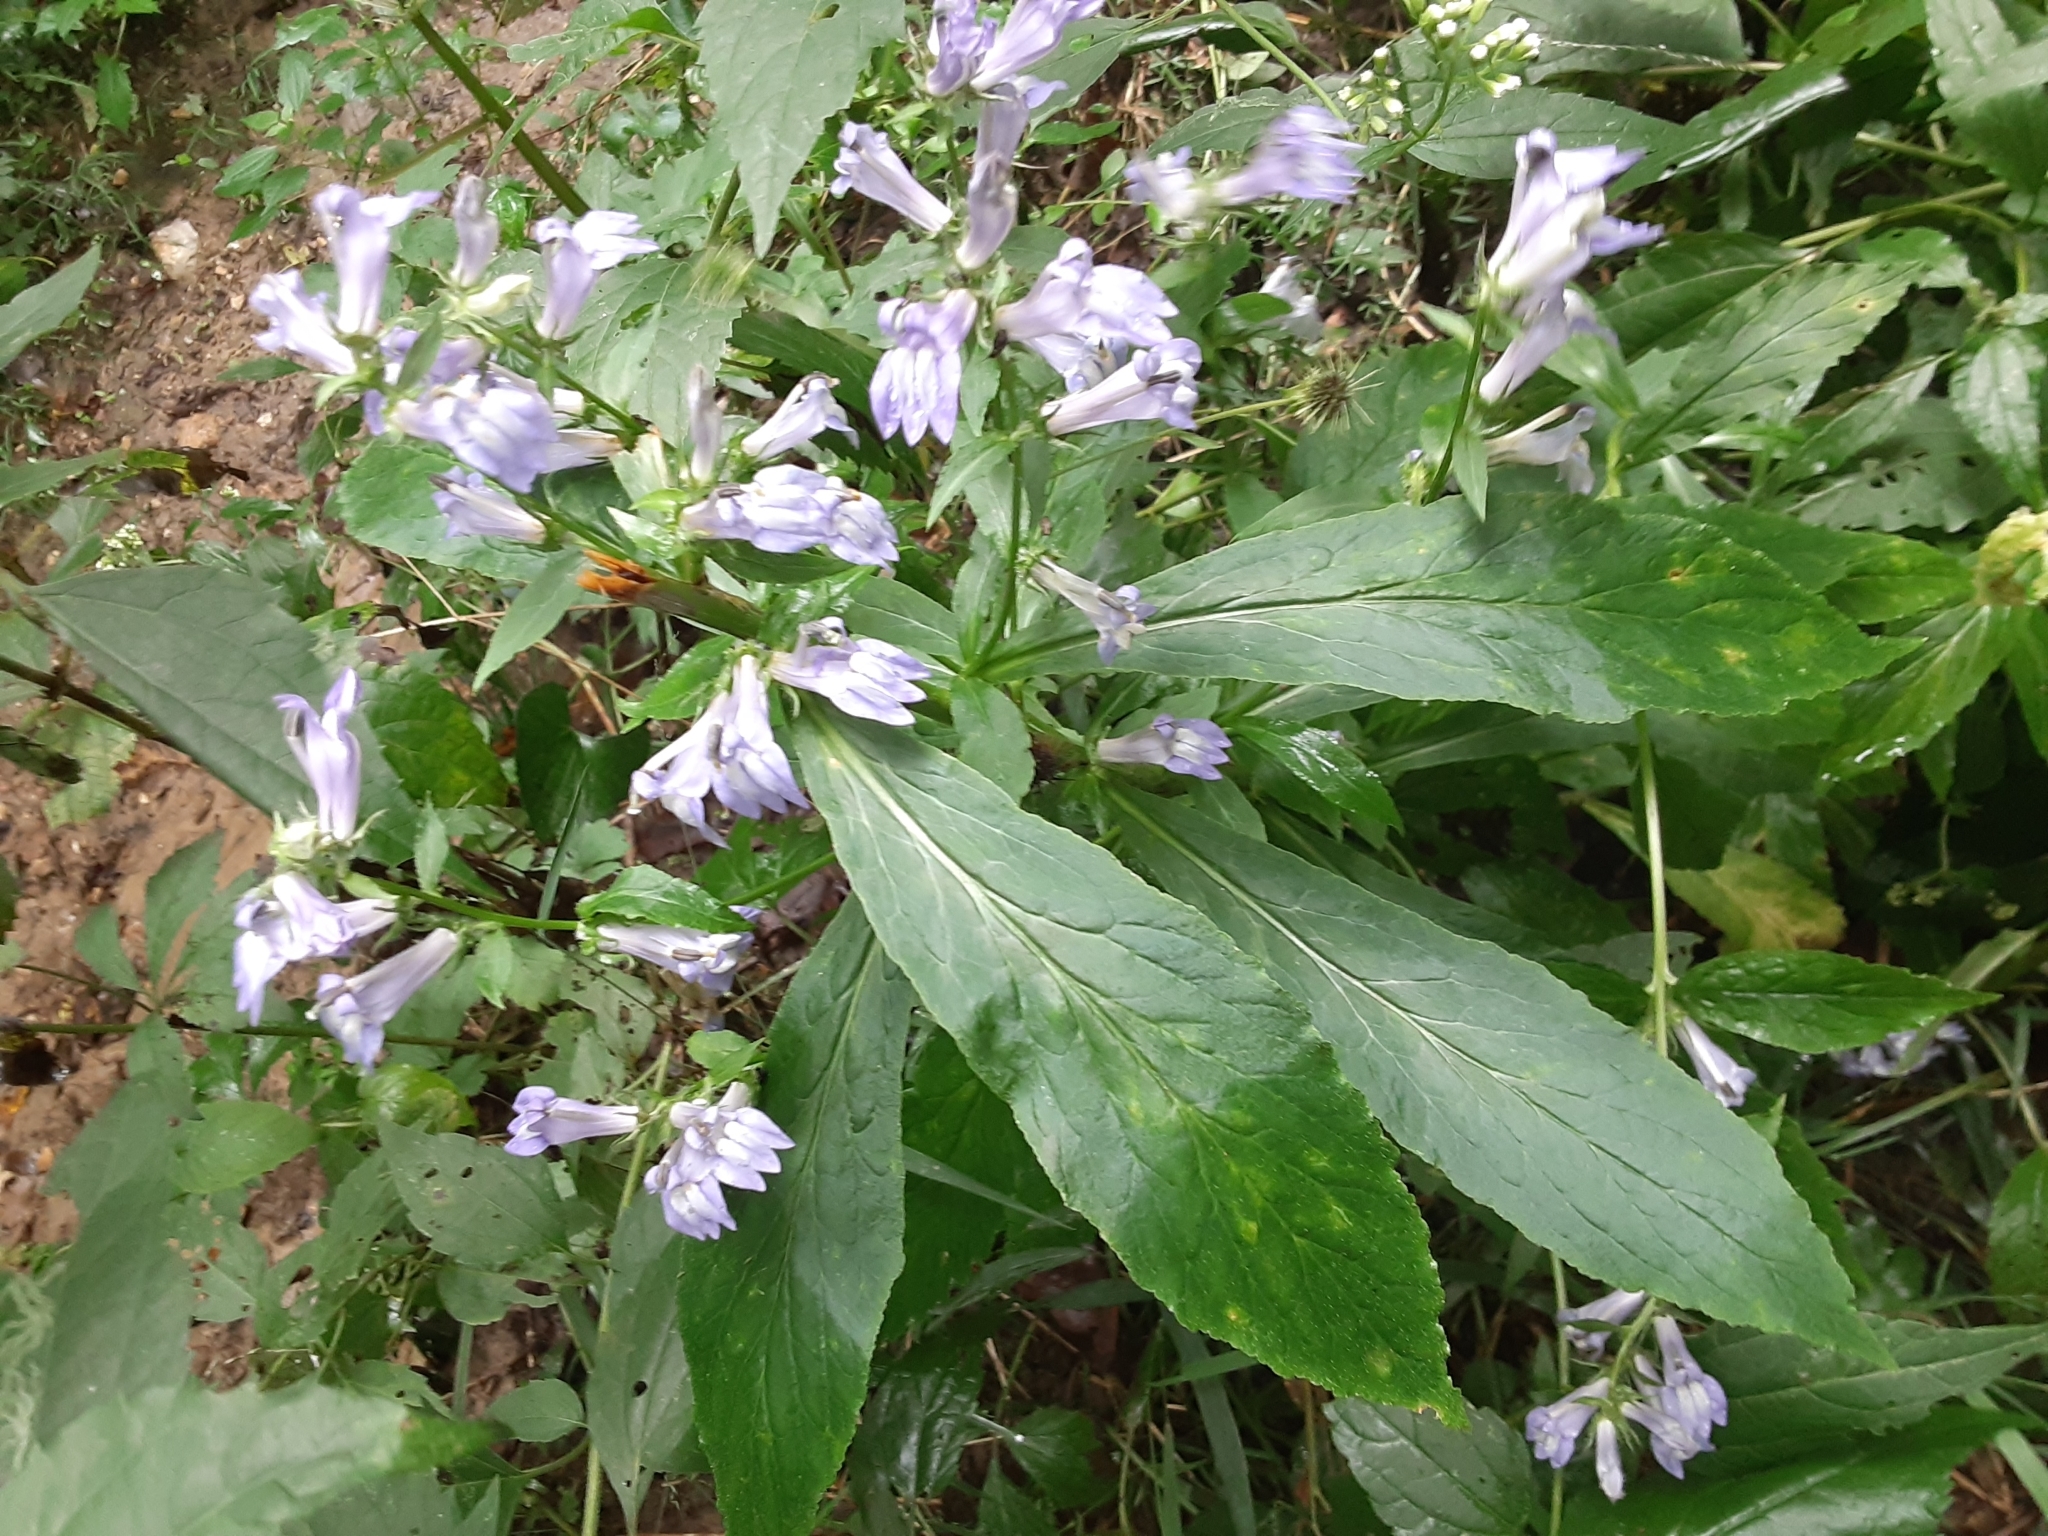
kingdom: Plantae
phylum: Tracheophyta
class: Magnoliopsida
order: Asterales
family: Campanulaceae
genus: Lobelia
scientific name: Lobelia siphilitica
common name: Great lobelia
